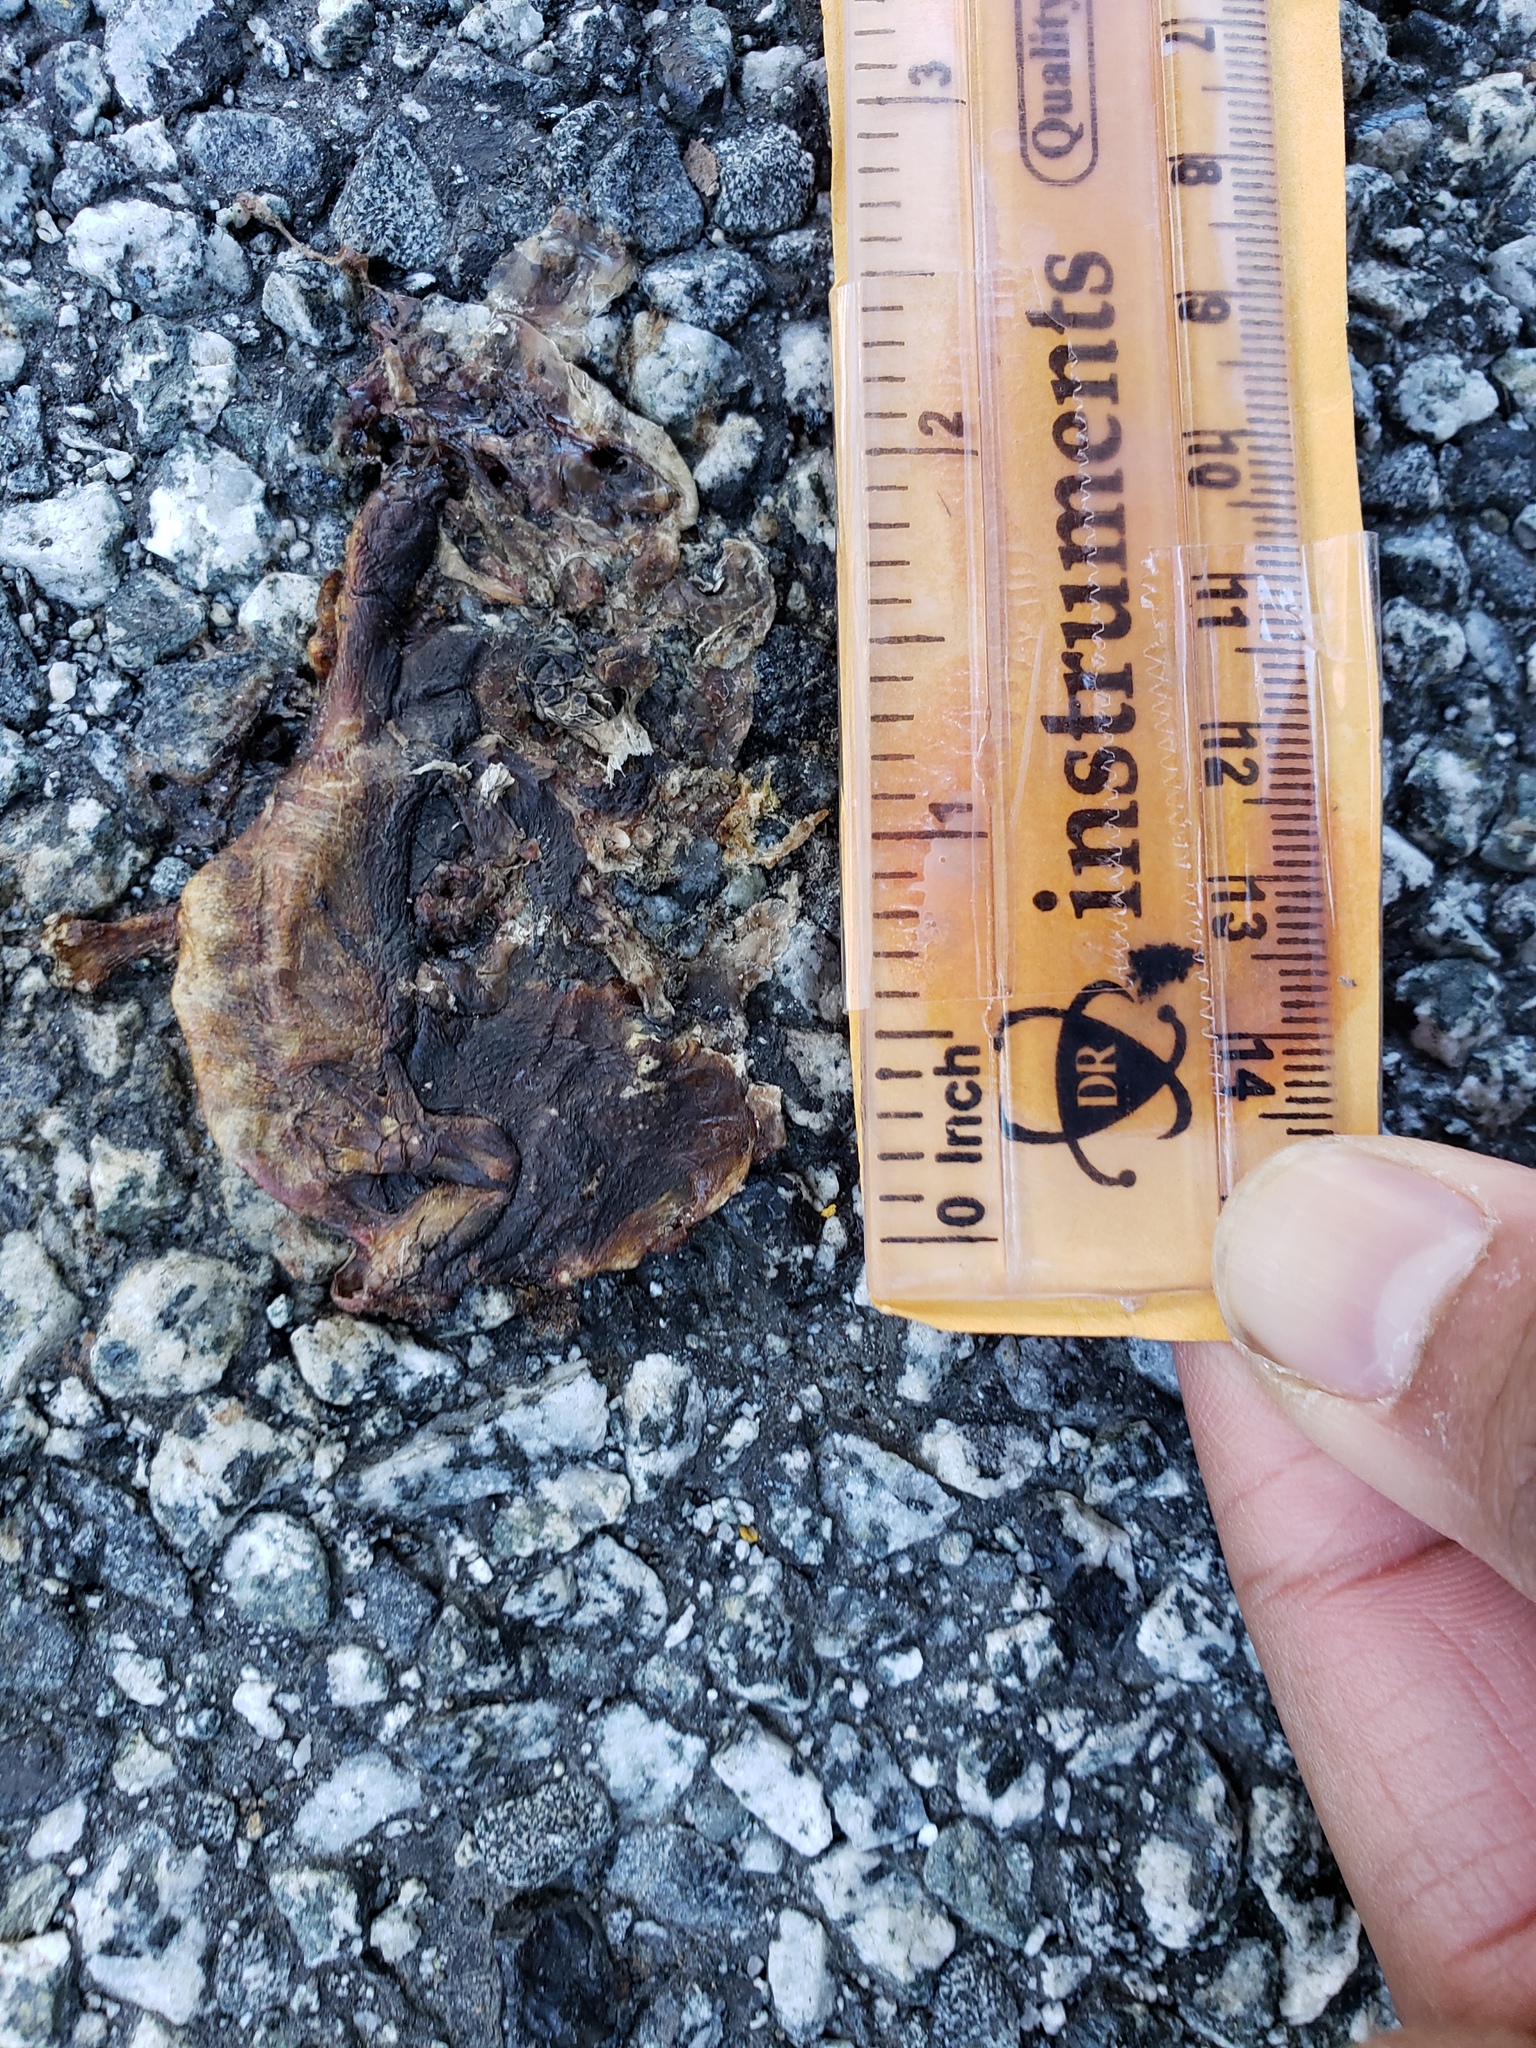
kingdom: Animalia
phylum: Chordata
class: Amphibia
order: Caudata
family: Salamandridae
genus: Taricha
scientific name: Taricha
